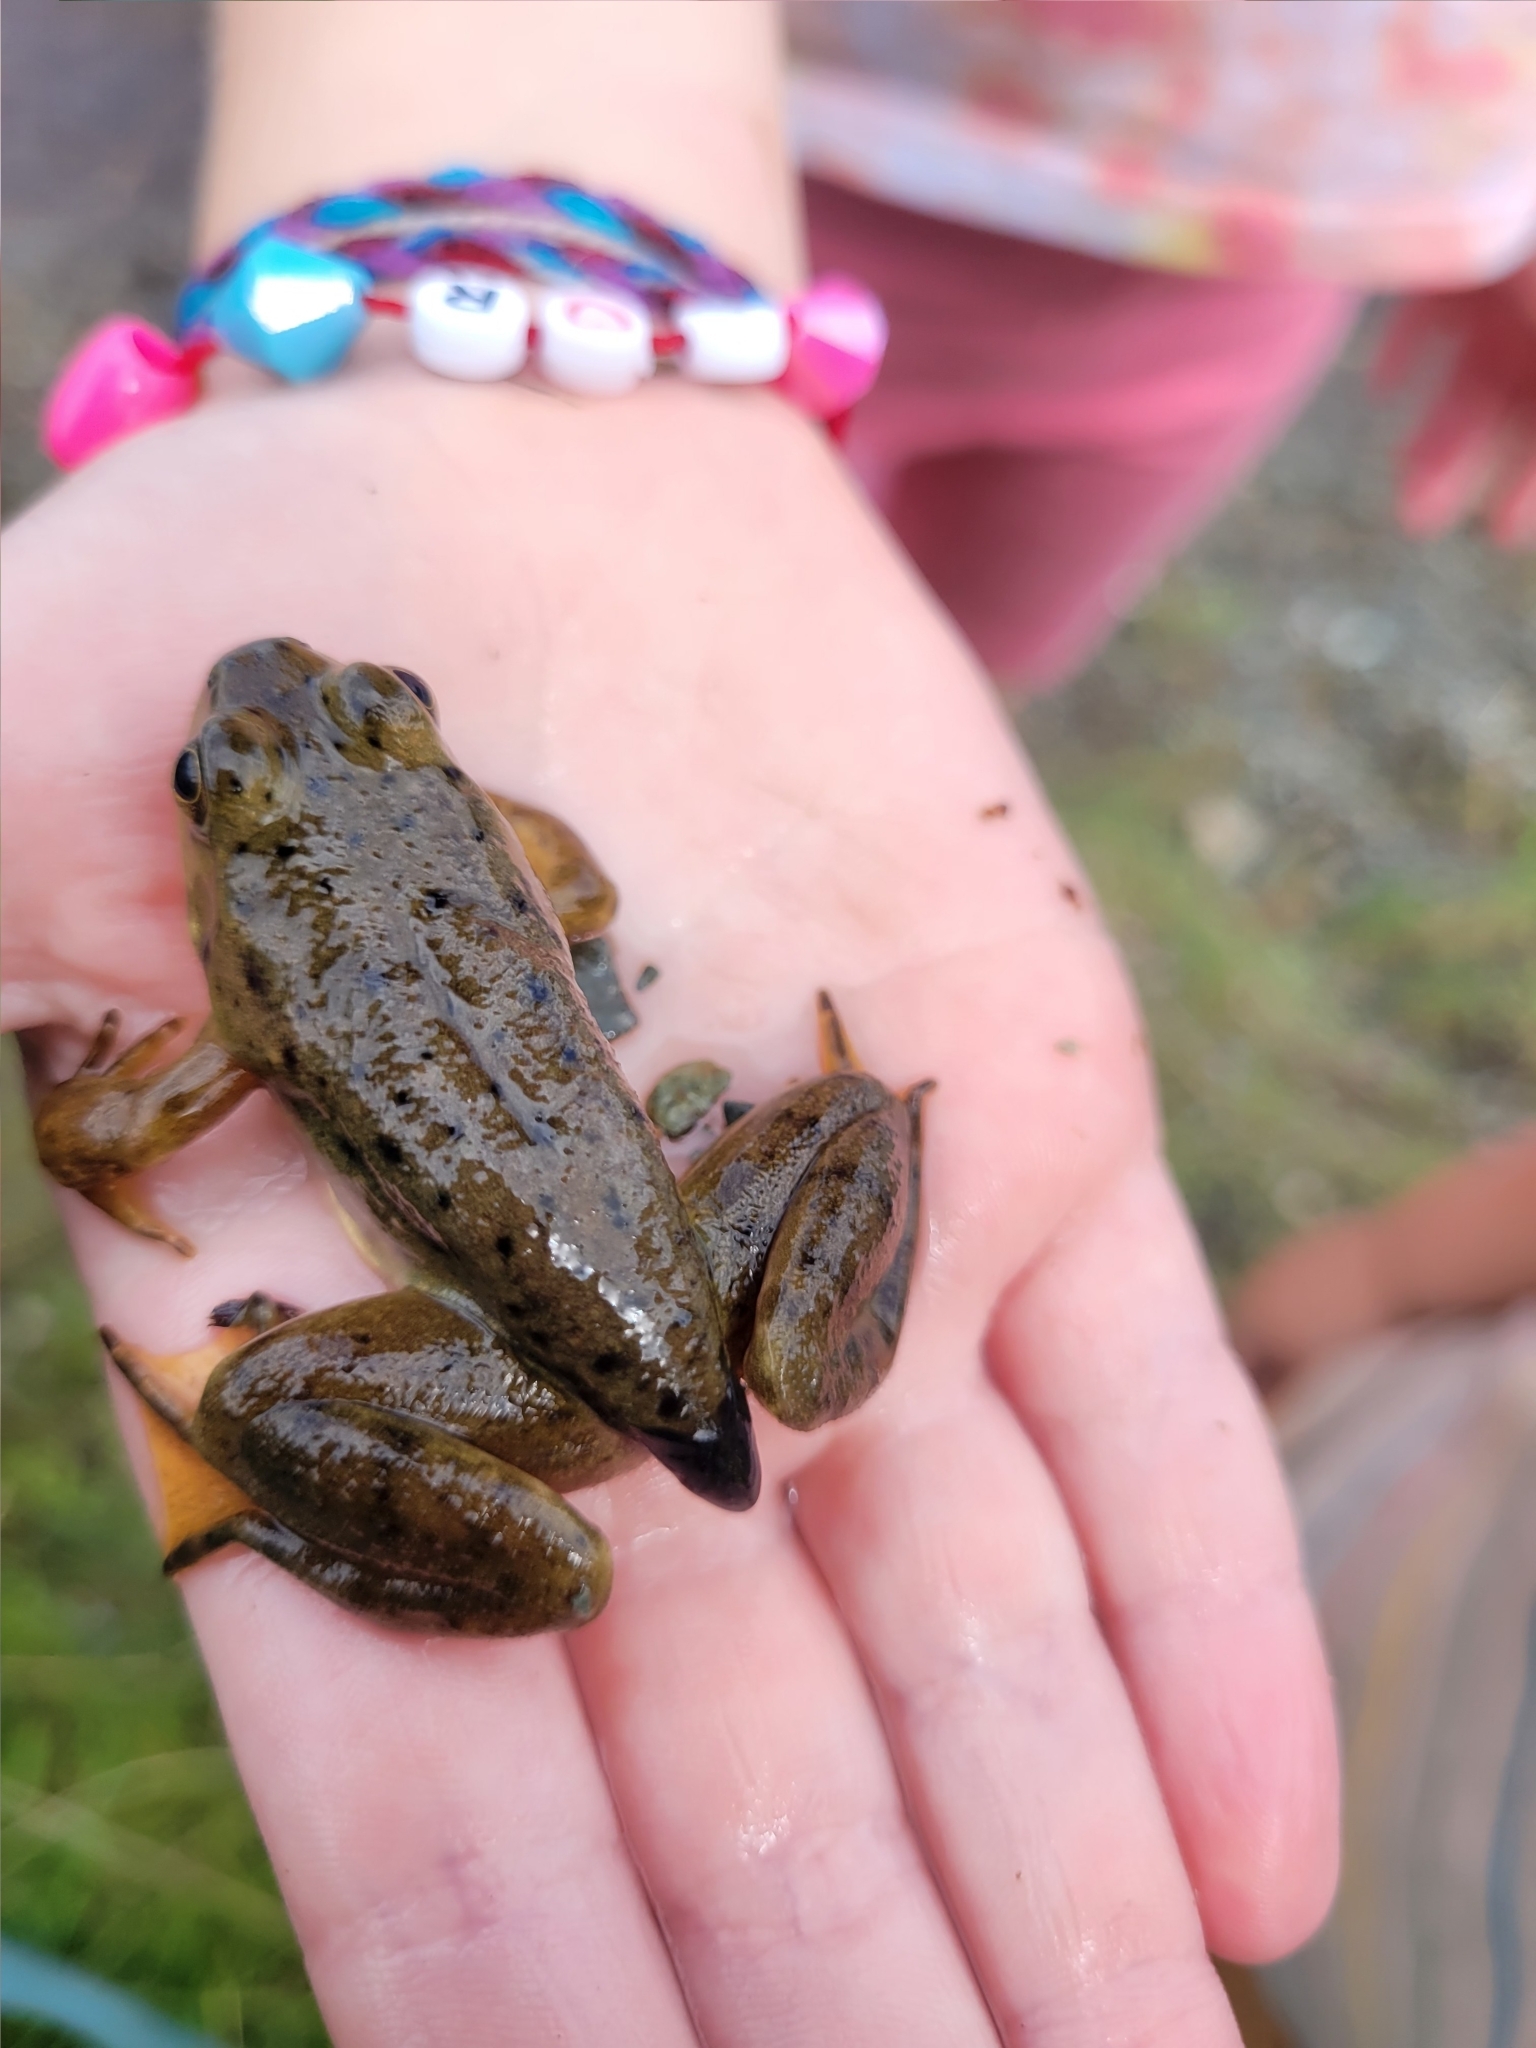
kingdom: Animalia
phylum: Chordata
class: Amphibia
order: Anura
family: Ranidae
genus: Lithobates
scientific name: Lithobates catesbeianus
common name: American bullfrog
